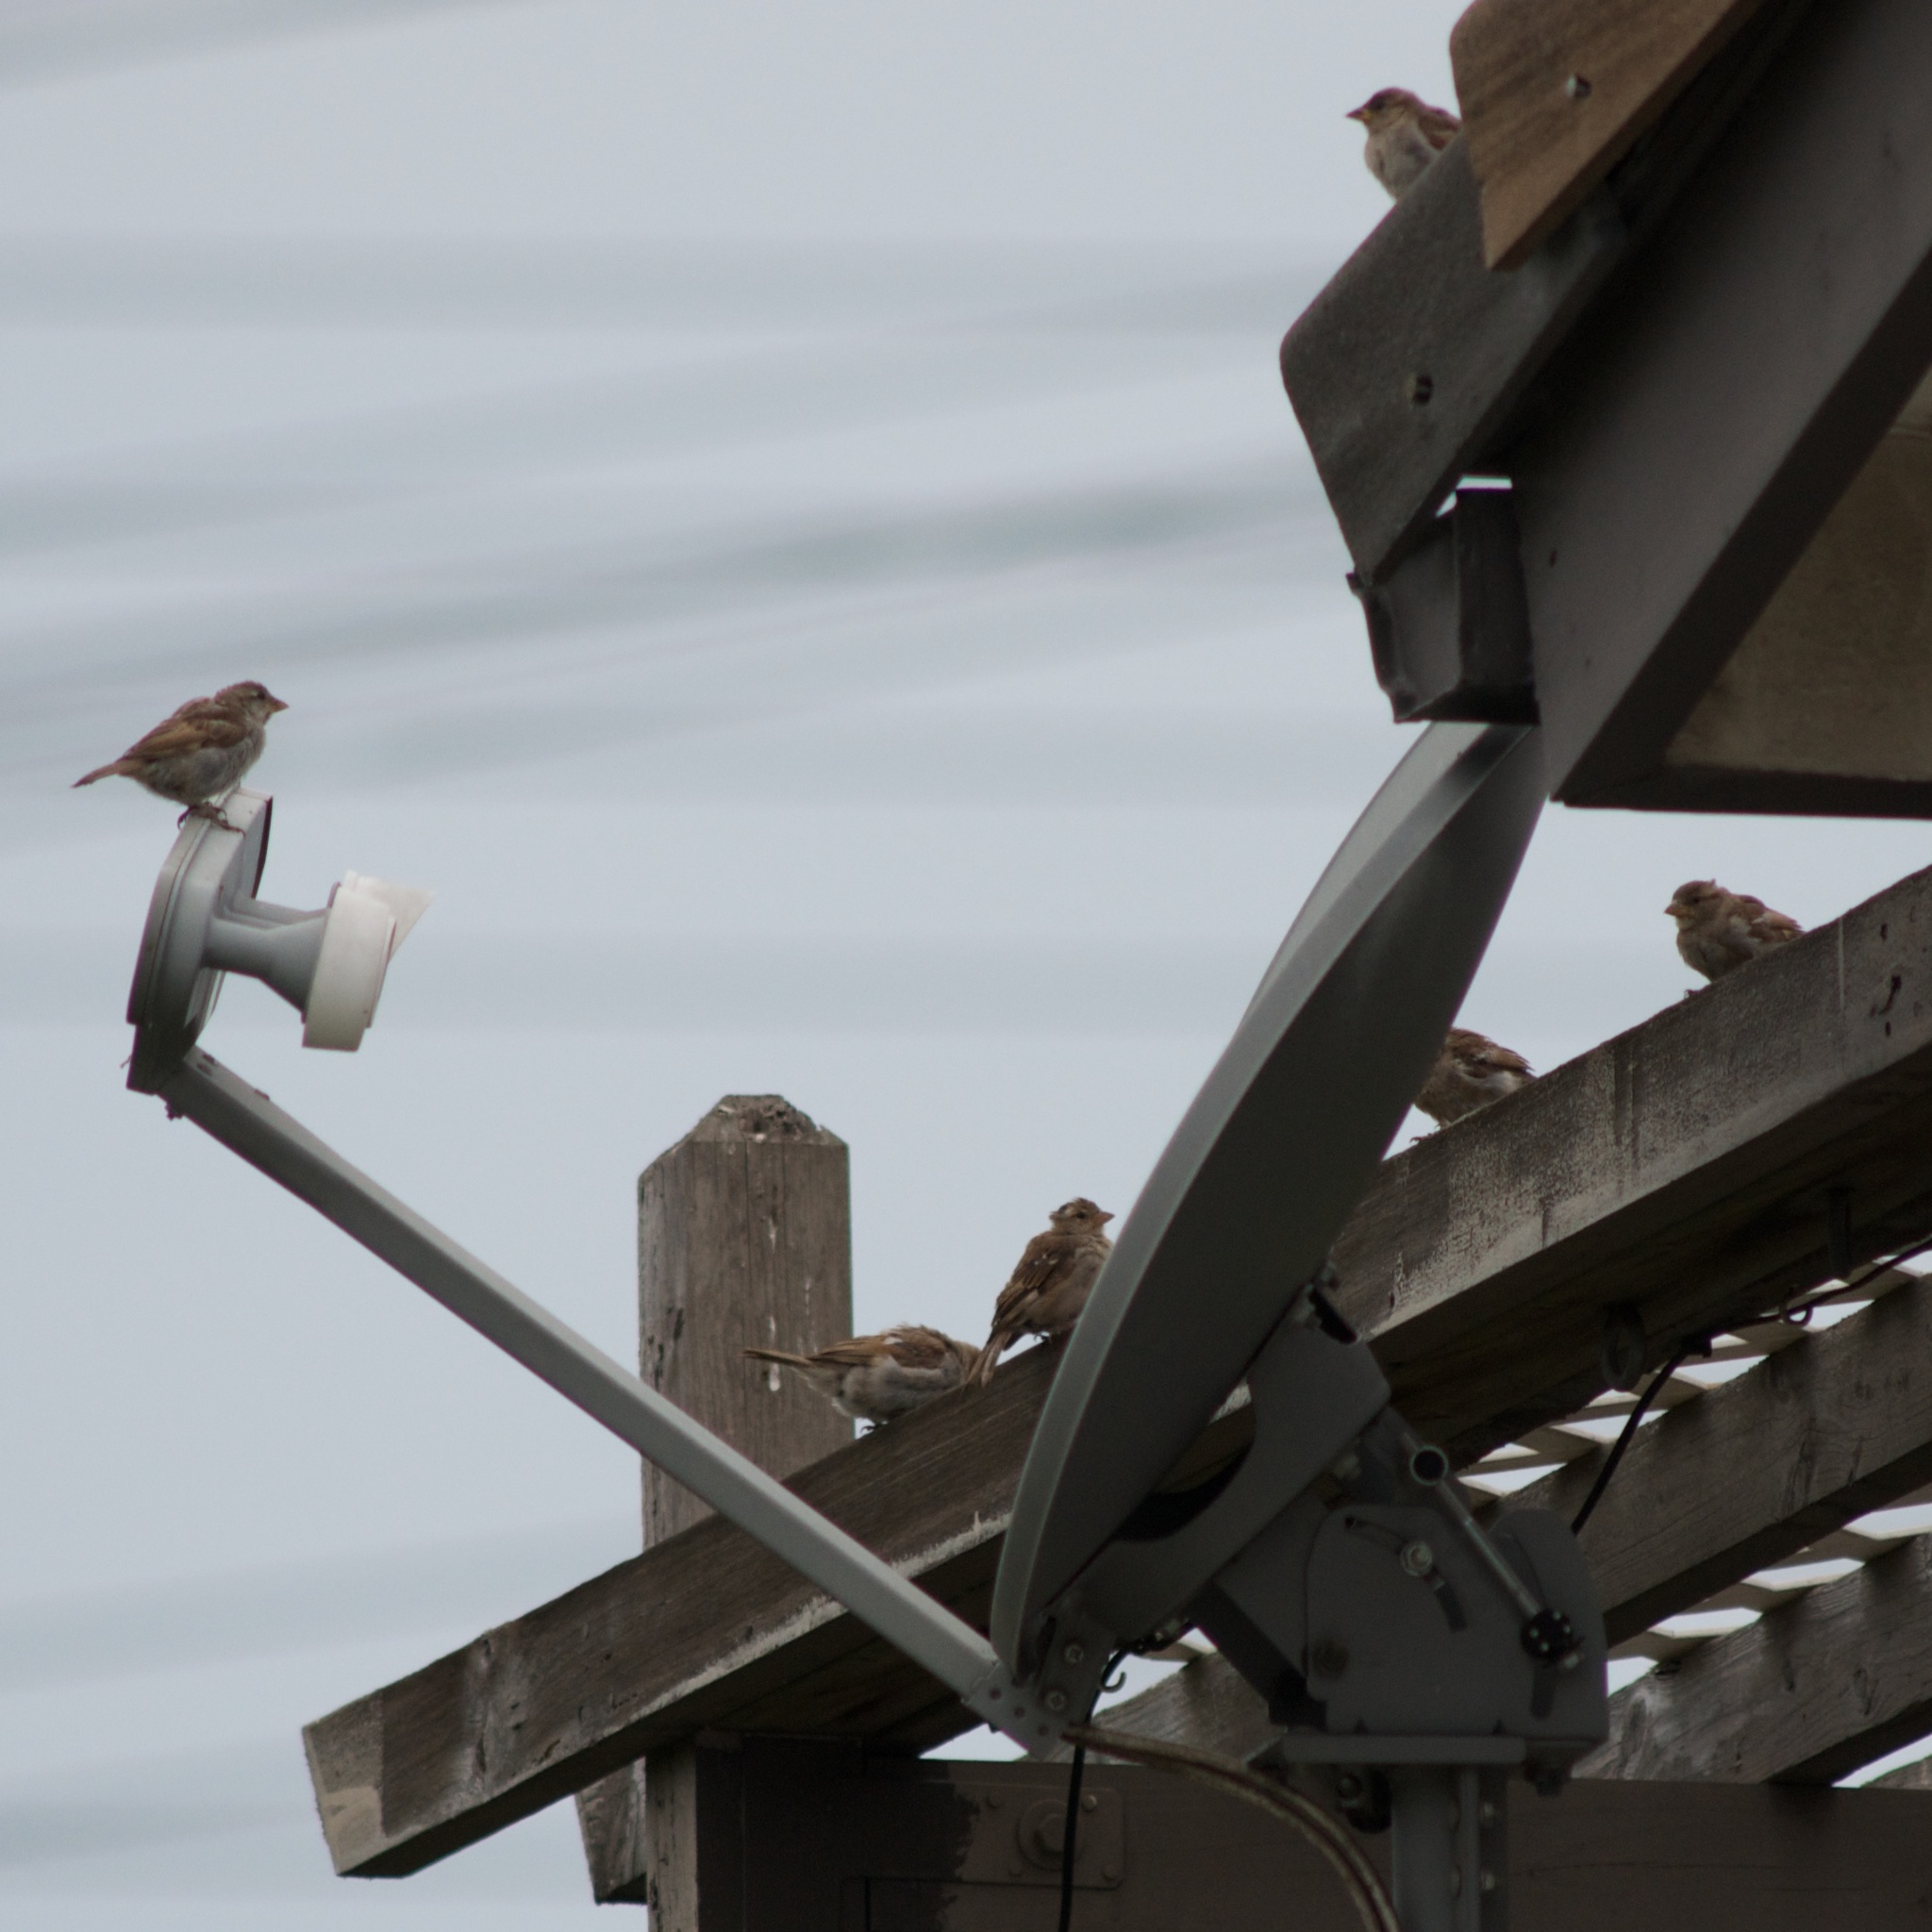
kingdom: Animalia
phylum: Chordata
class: Aves
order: Passeriformes
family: Passeridae
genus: Passer
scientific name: Passer domesticus
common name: House sparrow
